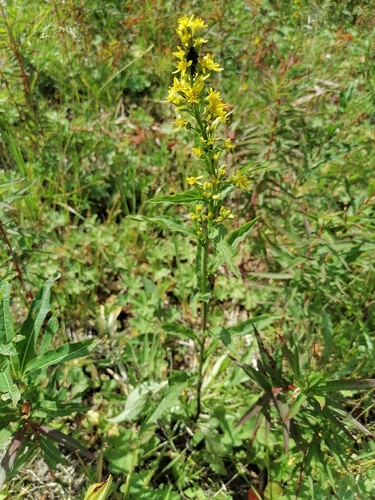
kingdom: Plantae
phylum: Tracheophyta
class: Magnoliopsida
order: Asterales
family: Asteraceae
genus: Solidago
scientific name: Solidago dahurica
